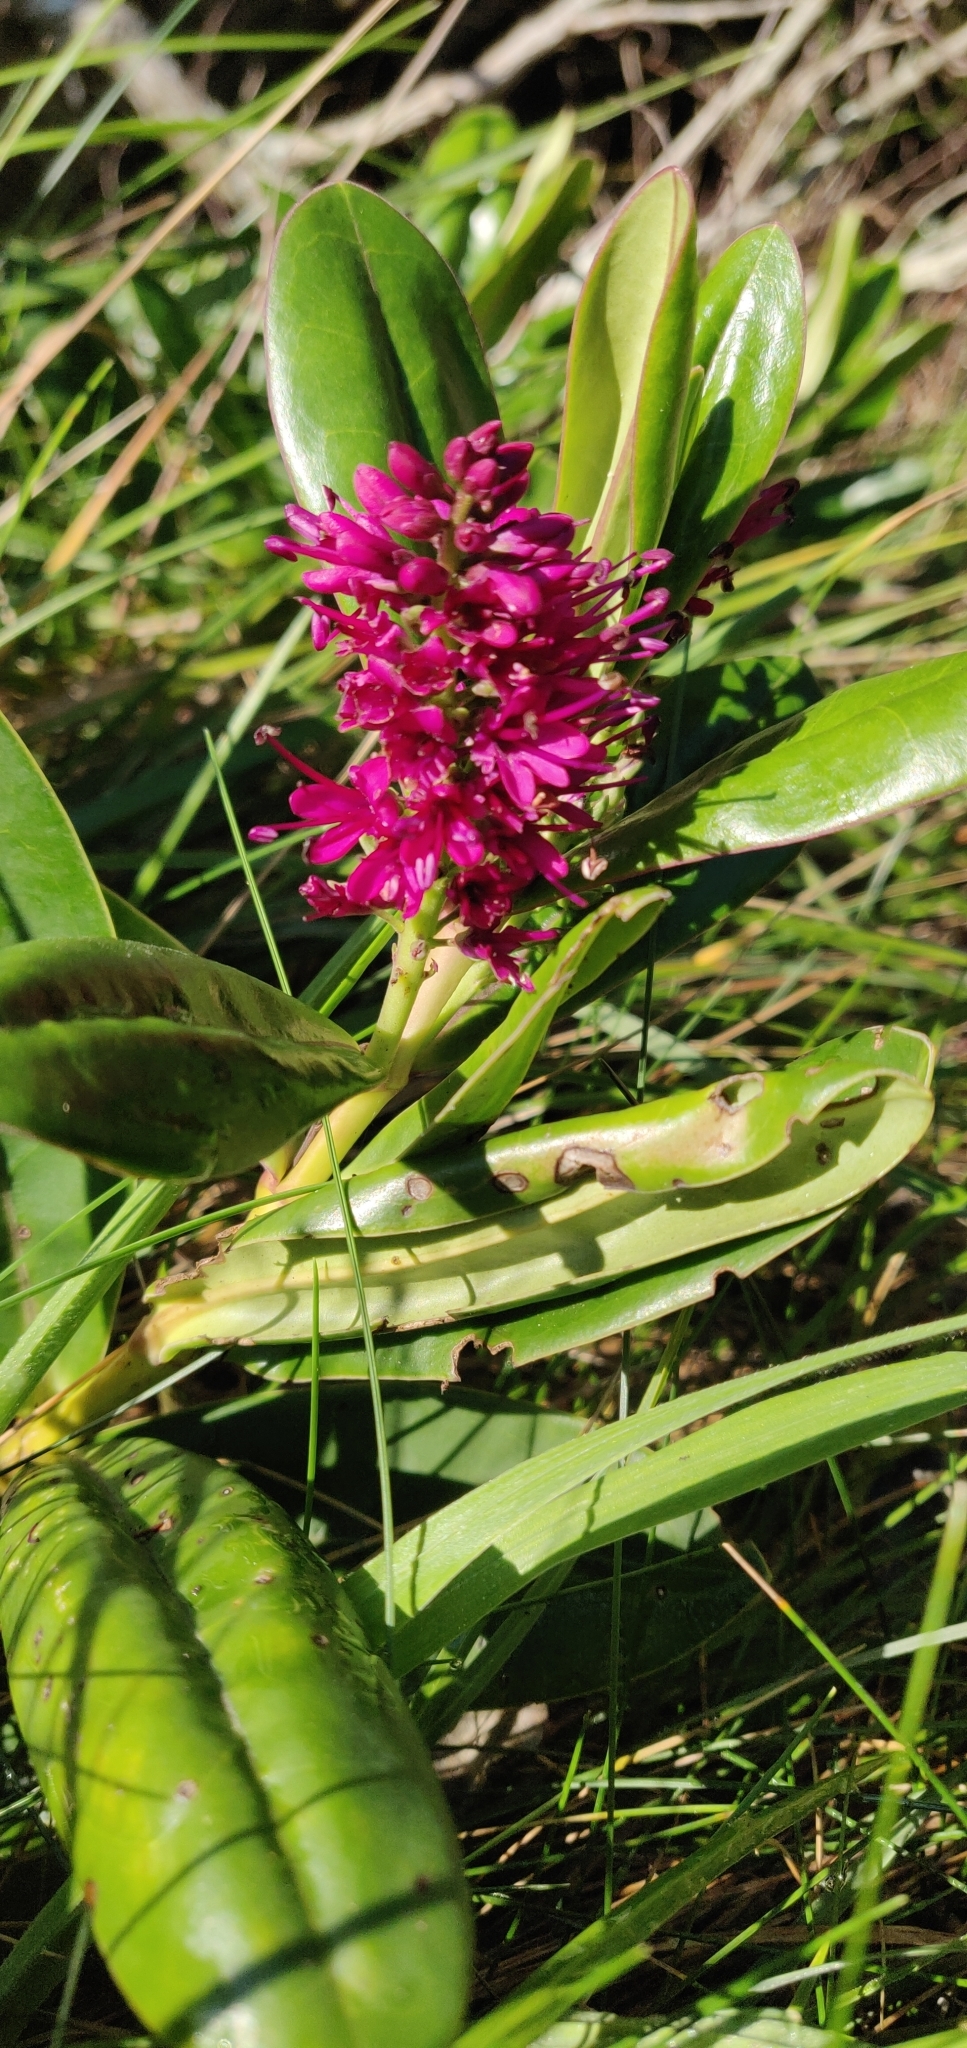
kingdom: Plantae
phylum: Tracheophyta
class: Magnoliopsida
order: Lamiales
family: Plantaginaceae
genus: Veronica
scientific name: Veronica speciosa
